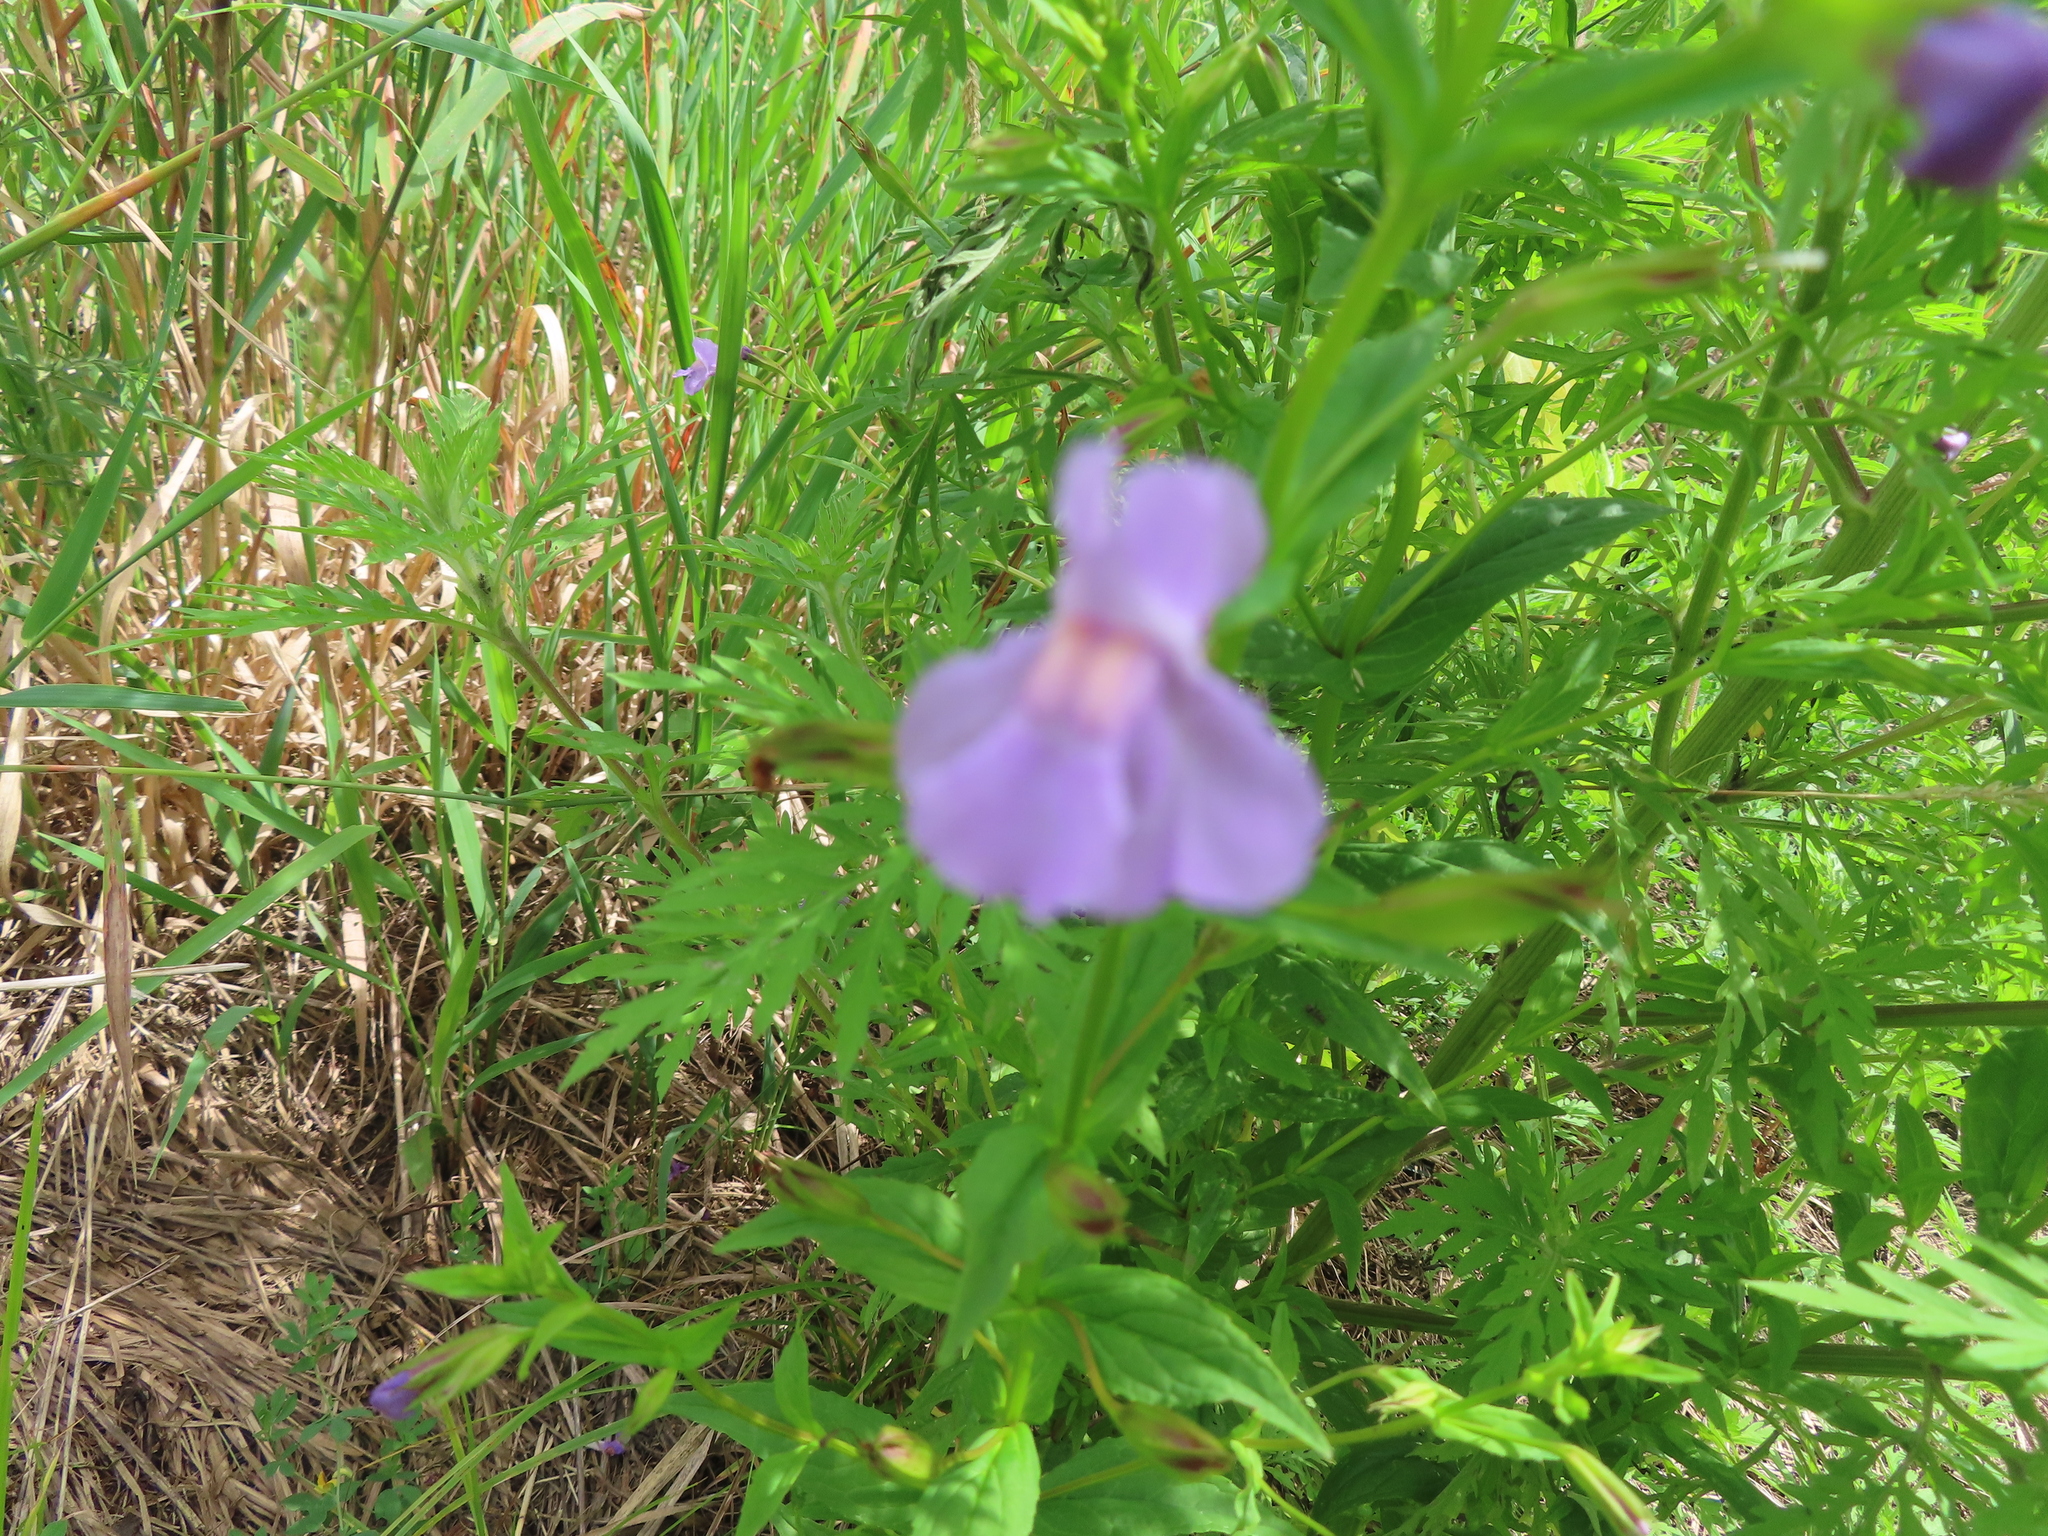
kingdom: Plantae
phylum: Tracheophyta
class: Magnoliopsida
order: Lamiales
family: Phrymaceae
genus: Mimulus
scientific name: Mimulus ringens
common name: Allegheny monkeyflower
